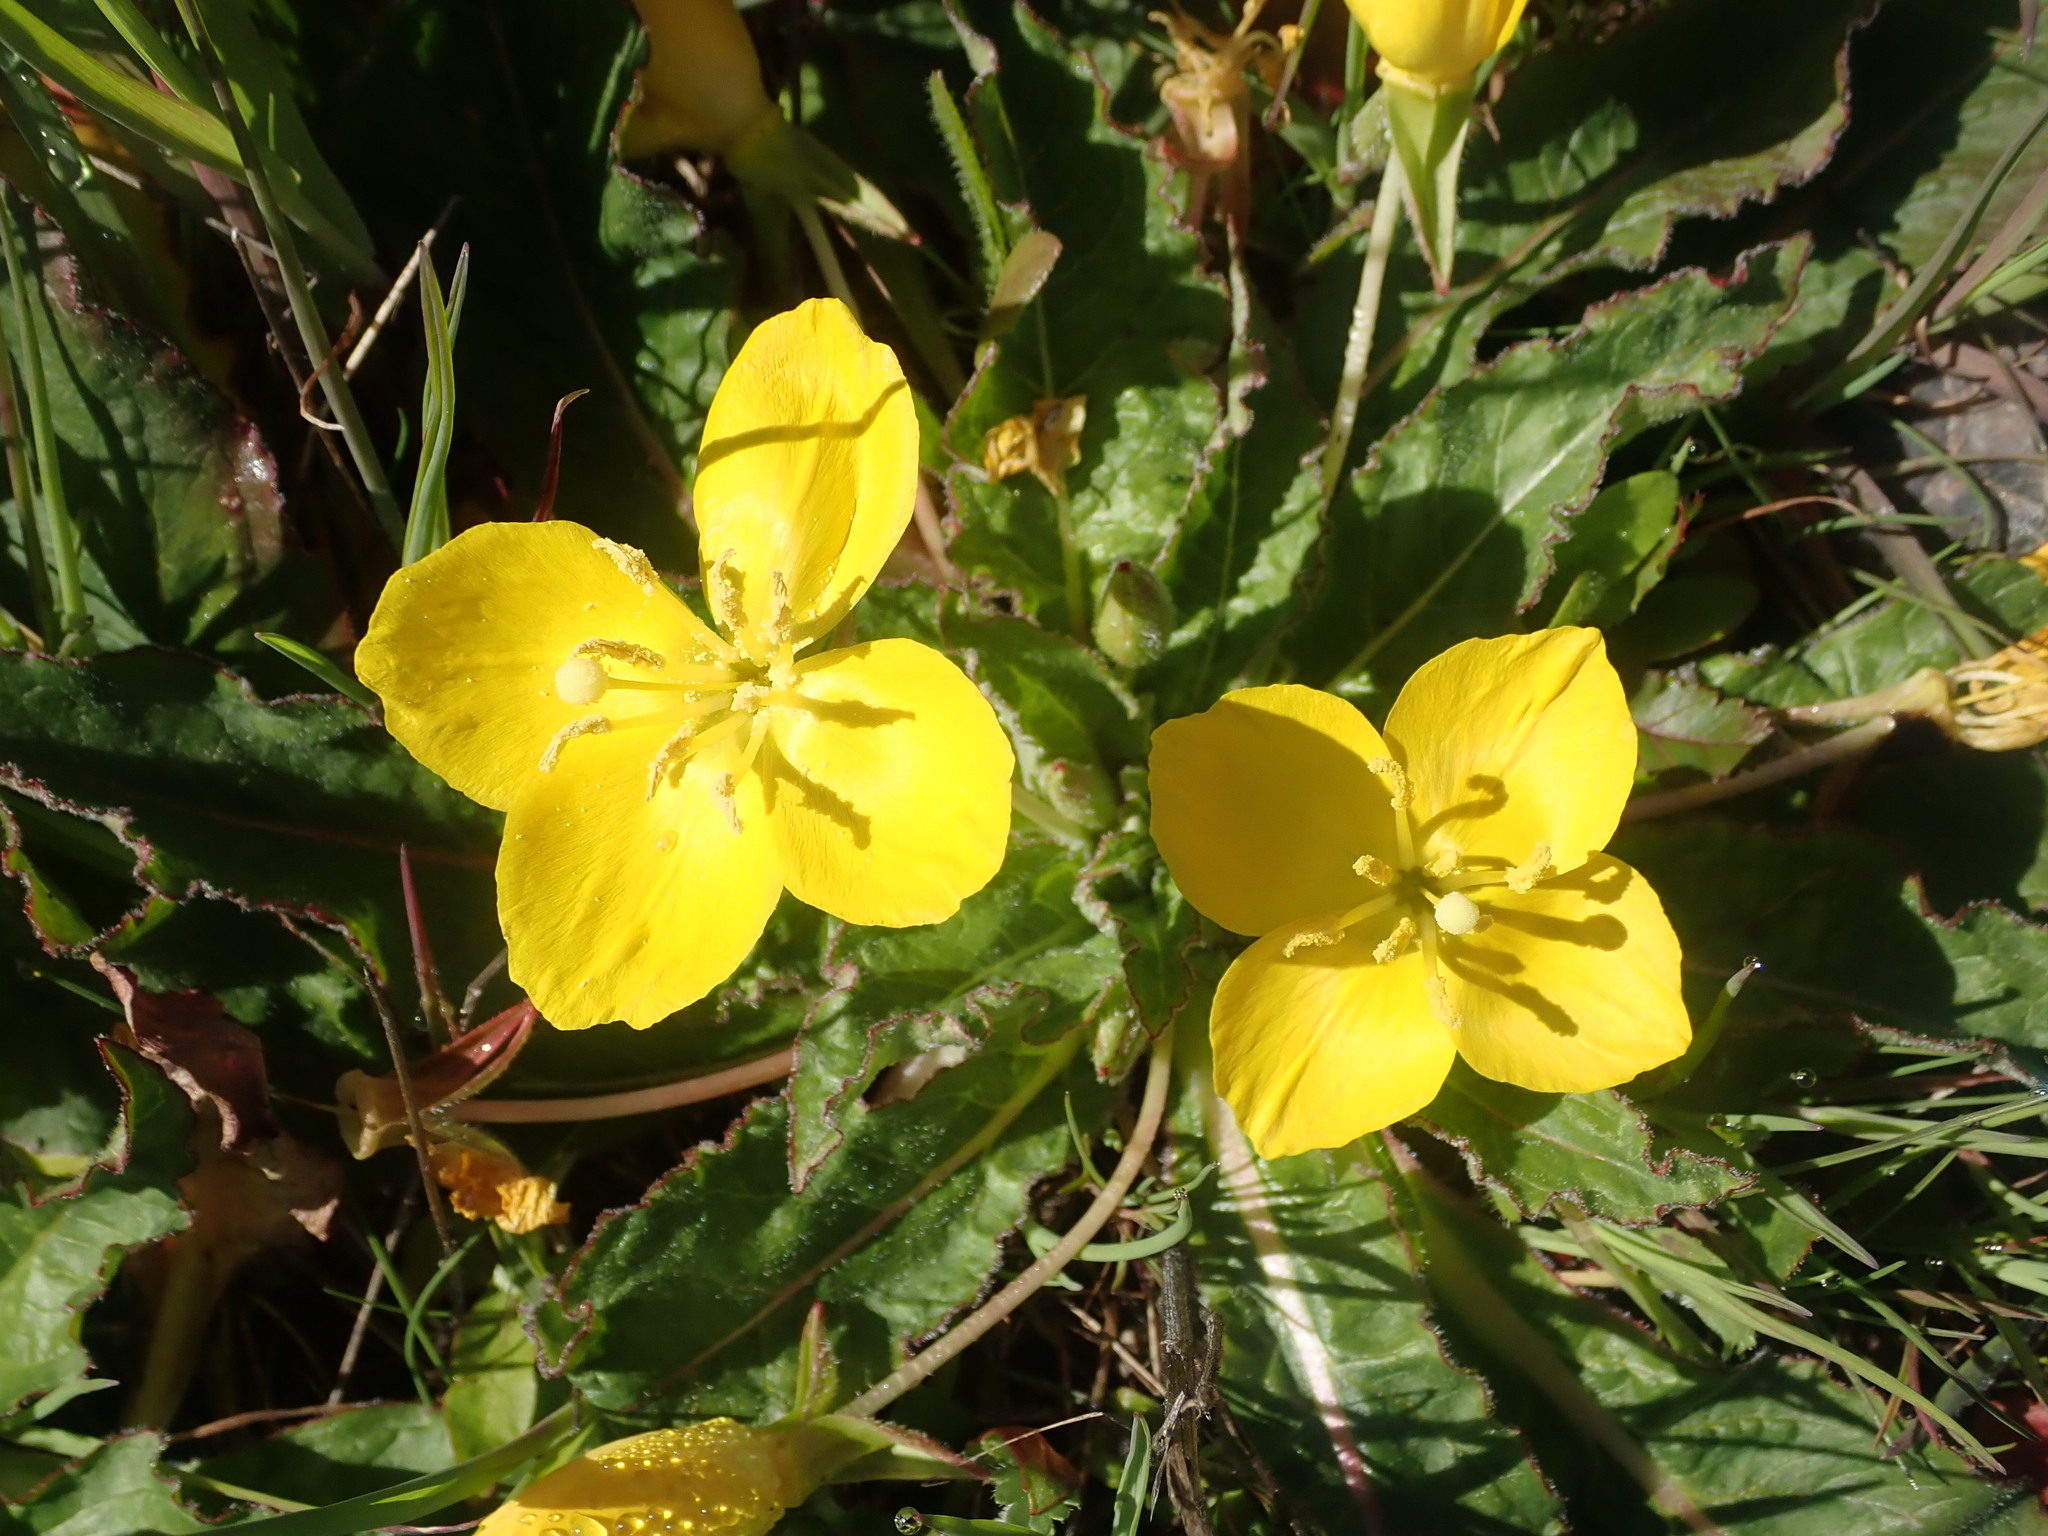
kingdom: Plantae
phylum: Tracheophyta
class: Magnoliopsida
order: Myrtales
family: Onagraceae
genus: Taraxia
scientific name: Taraxia ovata
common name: Goldeneggs
